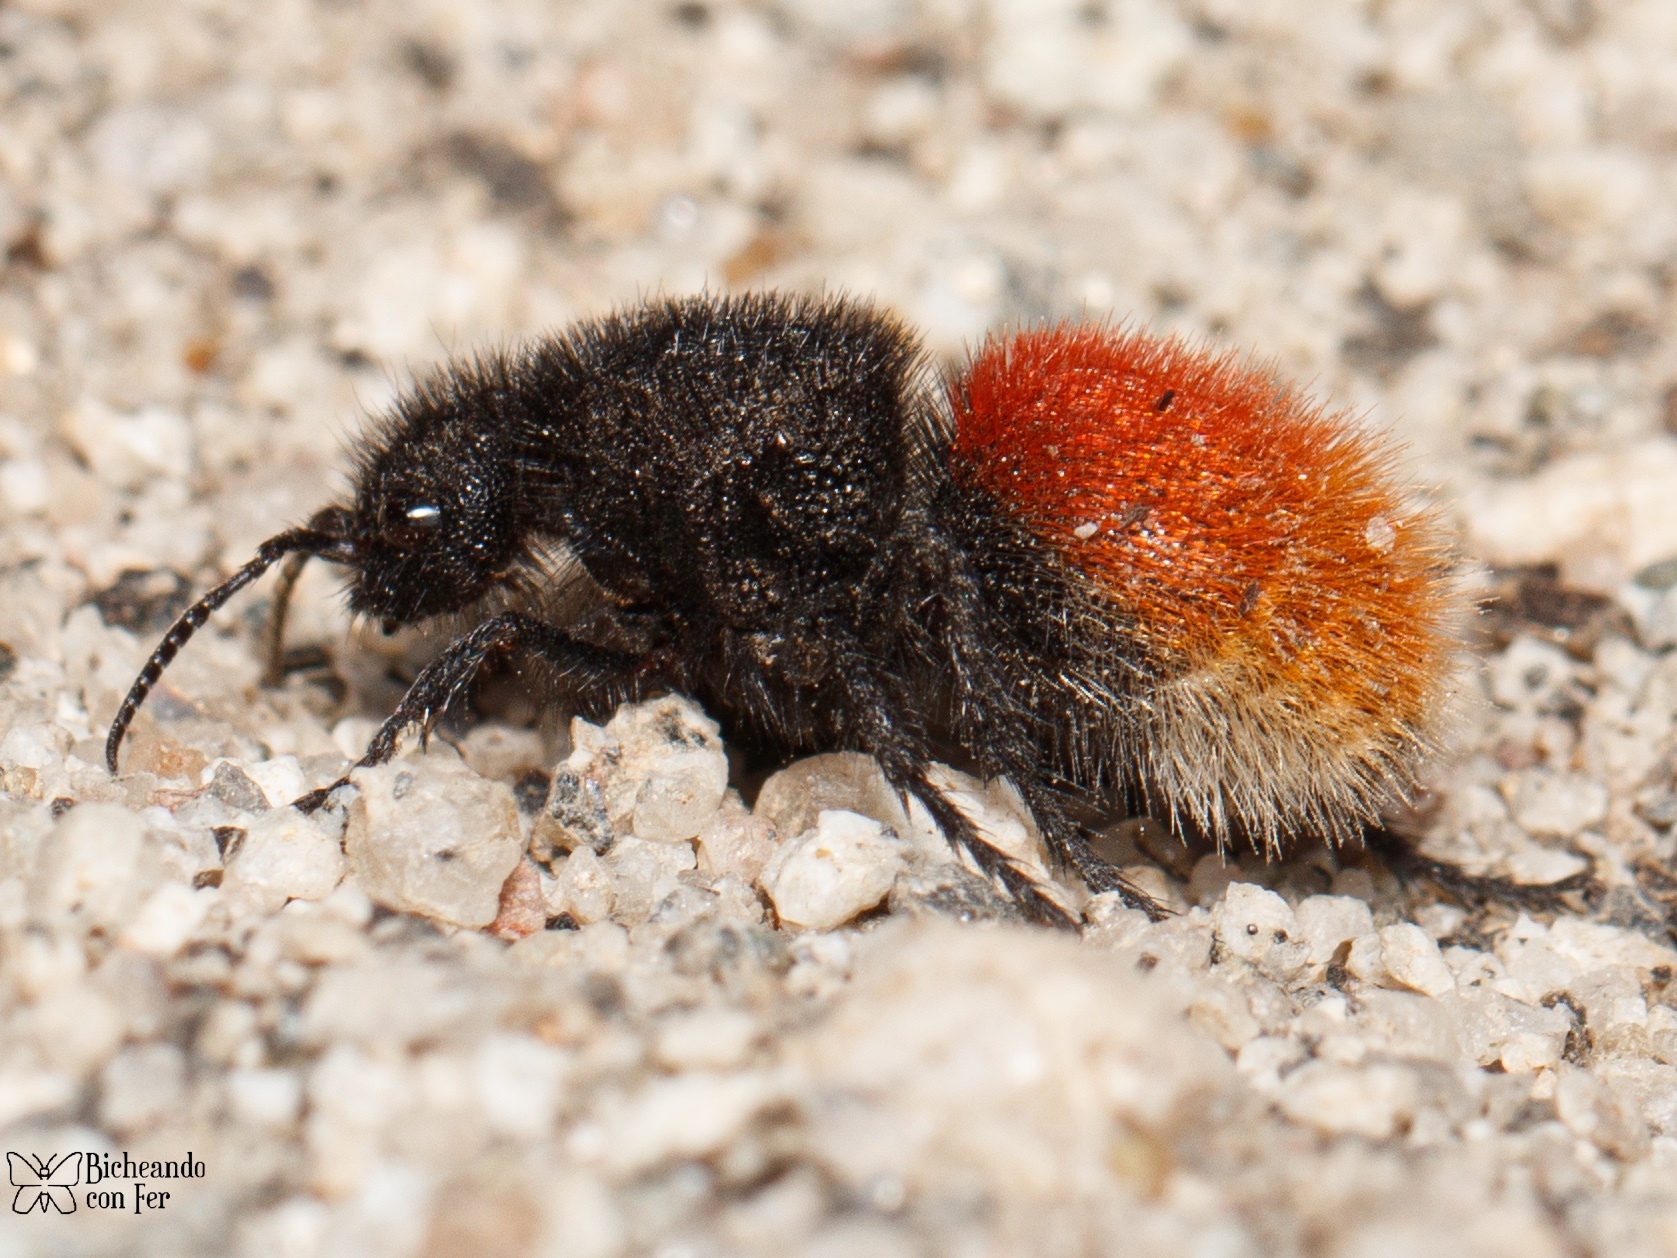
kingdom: Animalia
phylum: Arthropoda
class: Insecta
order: Hymenoptera
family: Mutillidae
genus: Dasymutilla
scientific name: Dasymutilla vestita
